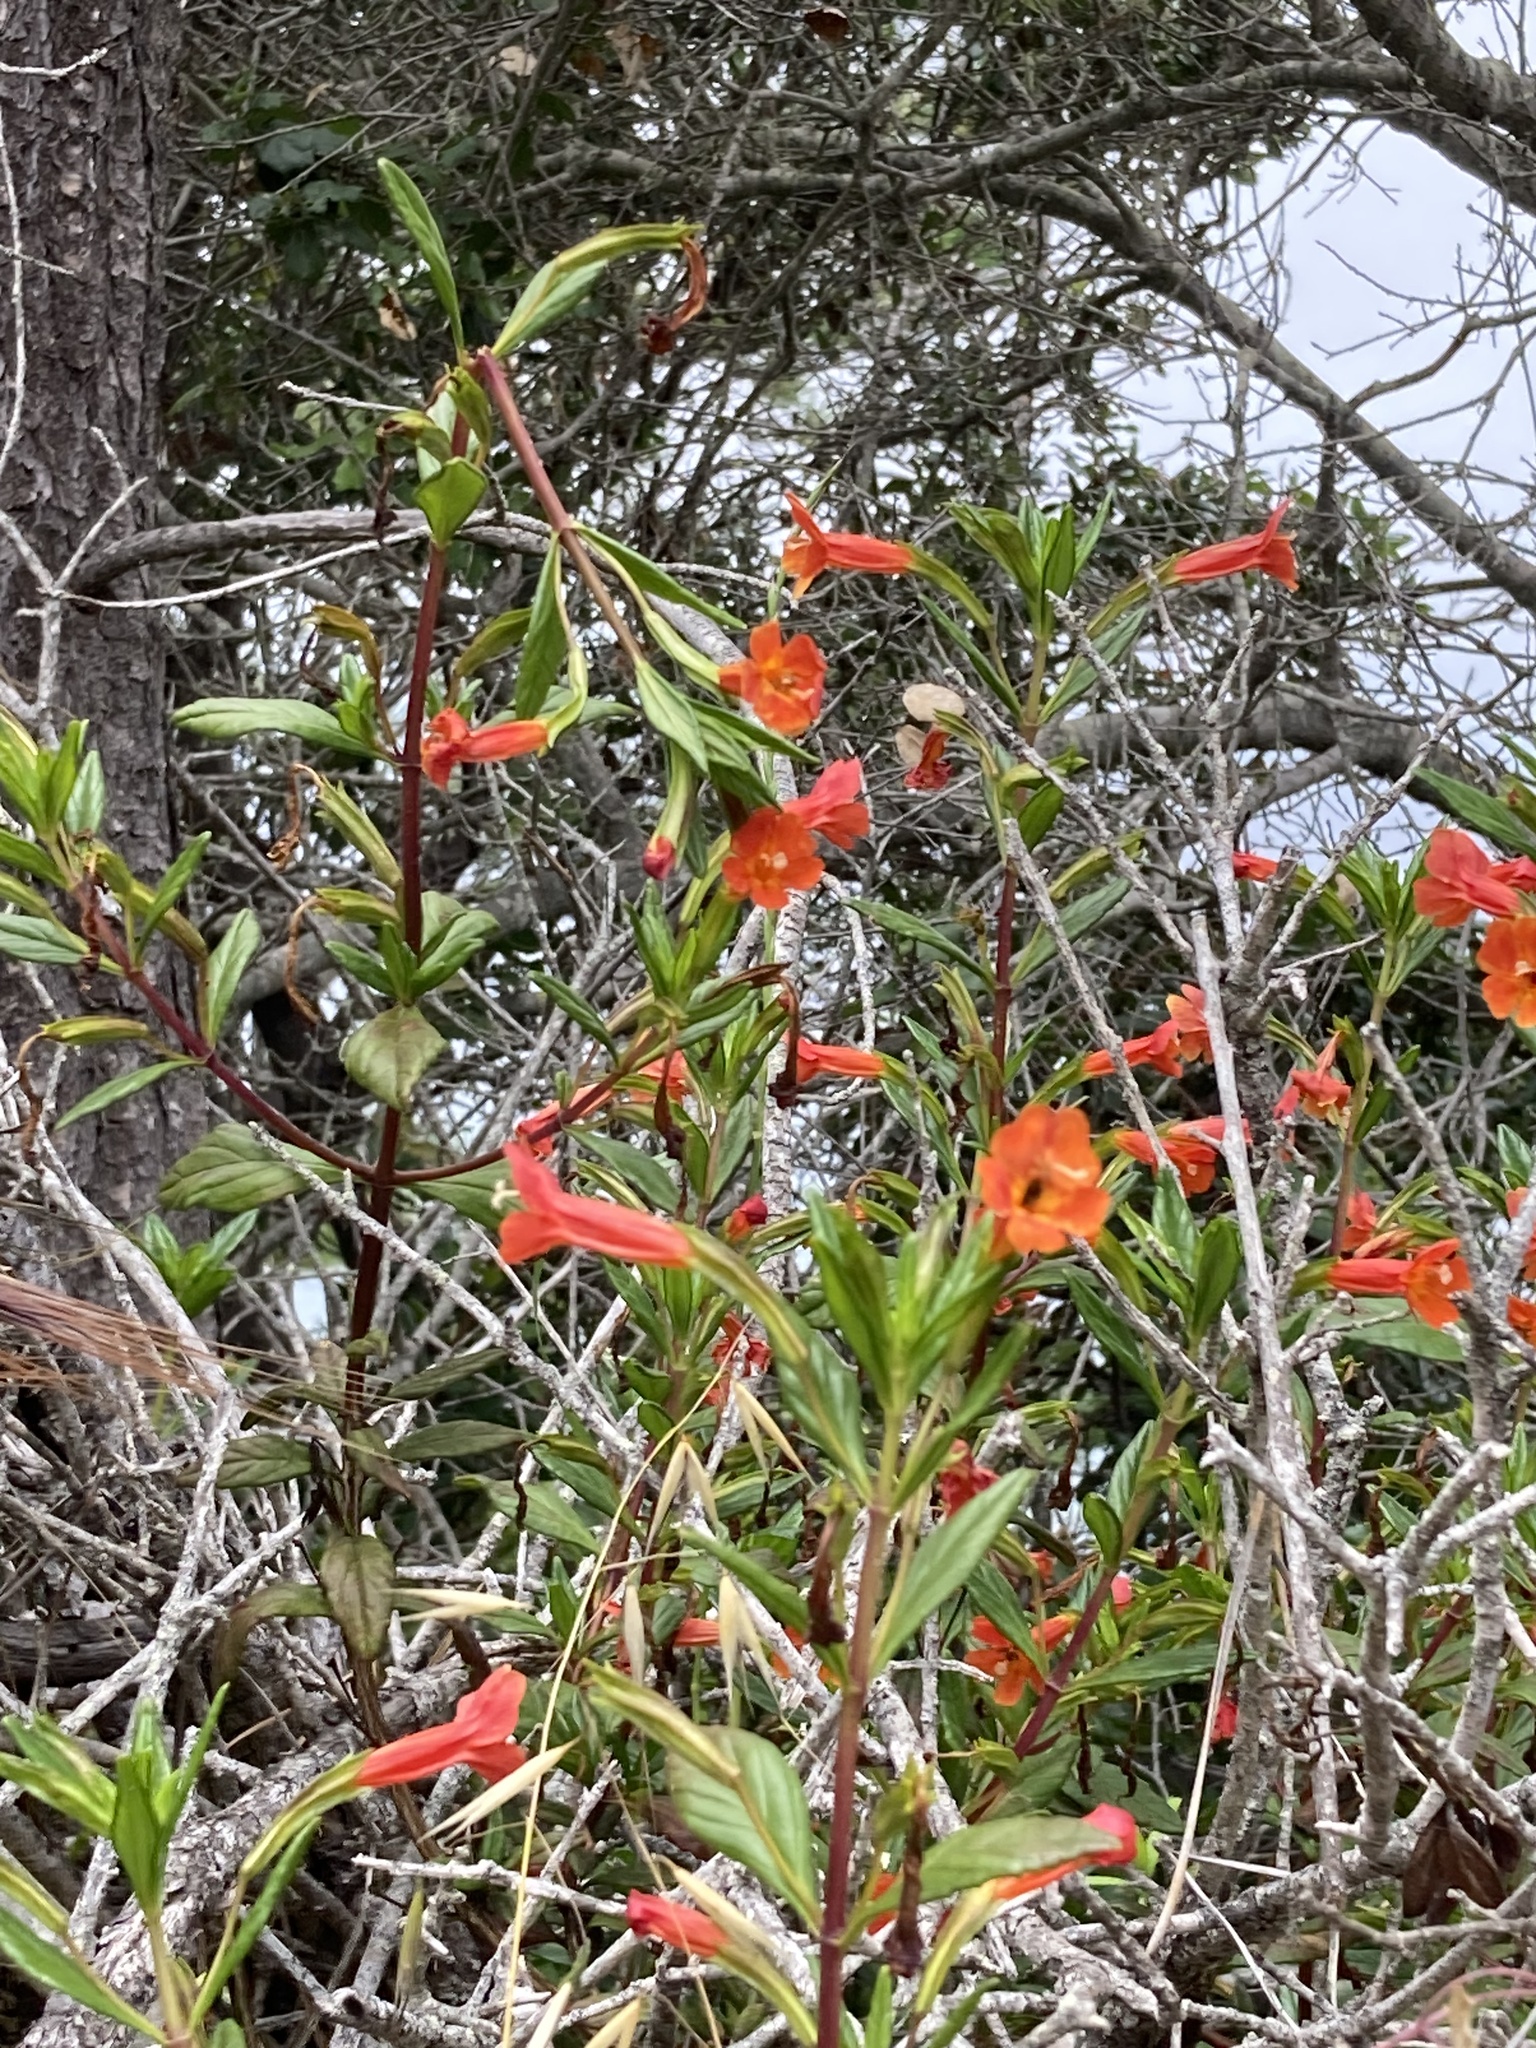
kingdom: Plantae
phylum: Tracheophyta
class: Magnoliopsida
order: Lamiales
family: Phrymaceae
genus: Diplacus
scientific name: Diplacus parviflorus
